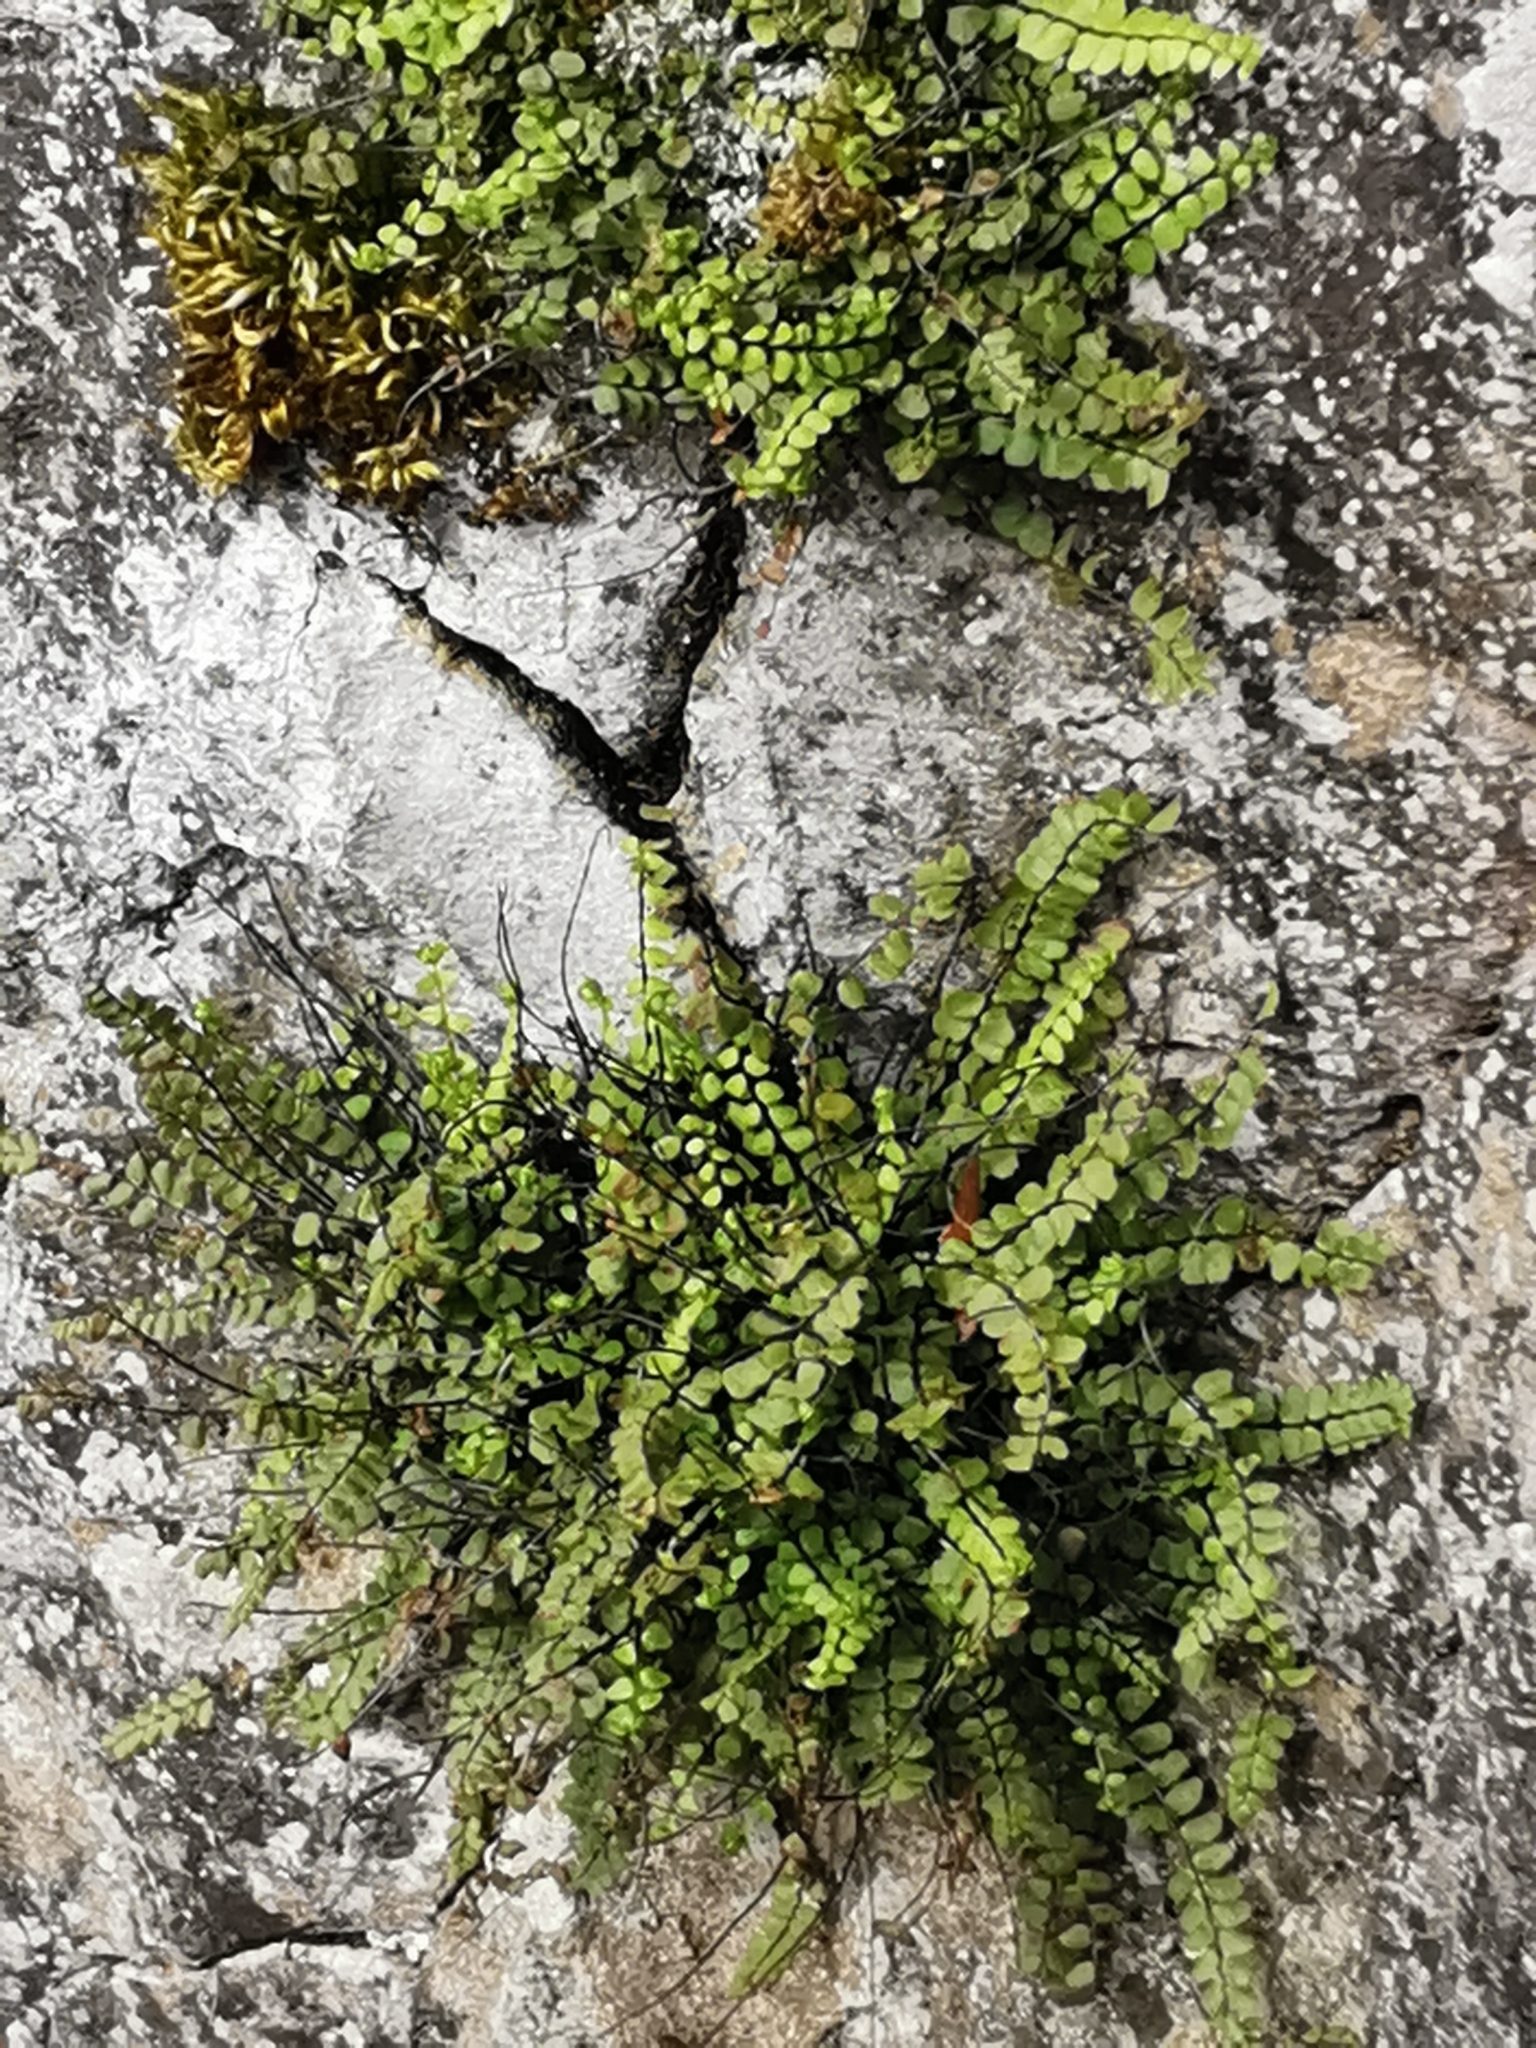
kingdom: Plantae
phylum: Tracheophyta
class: Polypodiopsida
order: Polypodiales
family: Aspleniaceae
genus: Asplenium
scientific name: Asplenium trichomanes
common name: Maidenhair spleenwort
